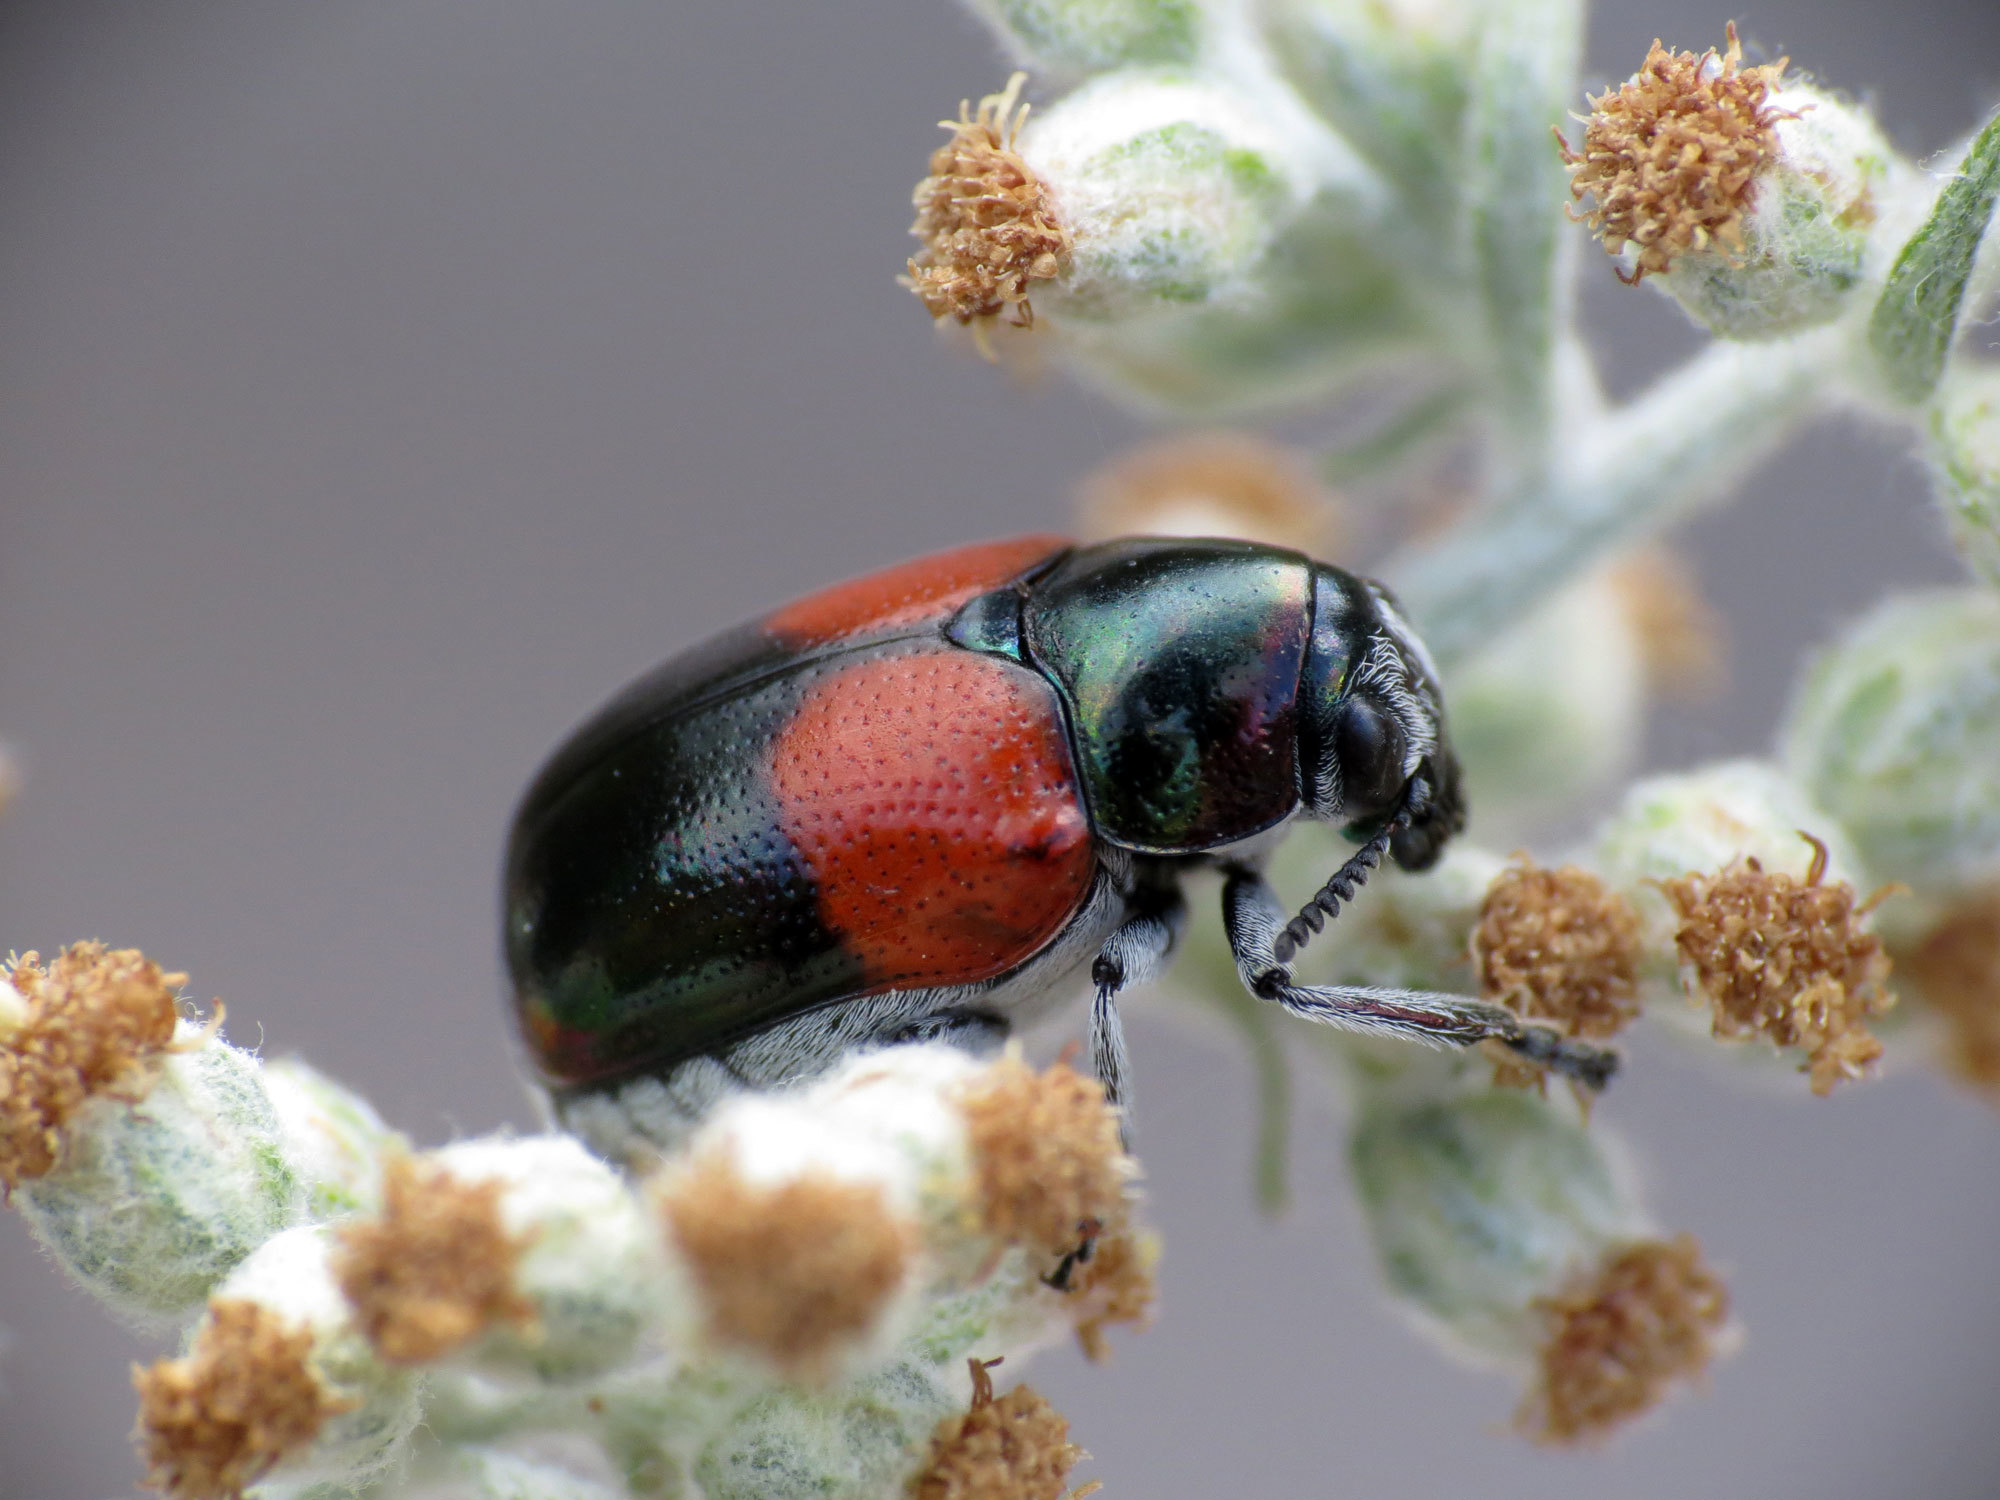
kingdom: Animalia
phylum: Arthropoda
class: Insecta
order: Coleoptera
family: Chrysomelidae
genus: Megalostomis
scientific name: Megalostomis pyropyga
